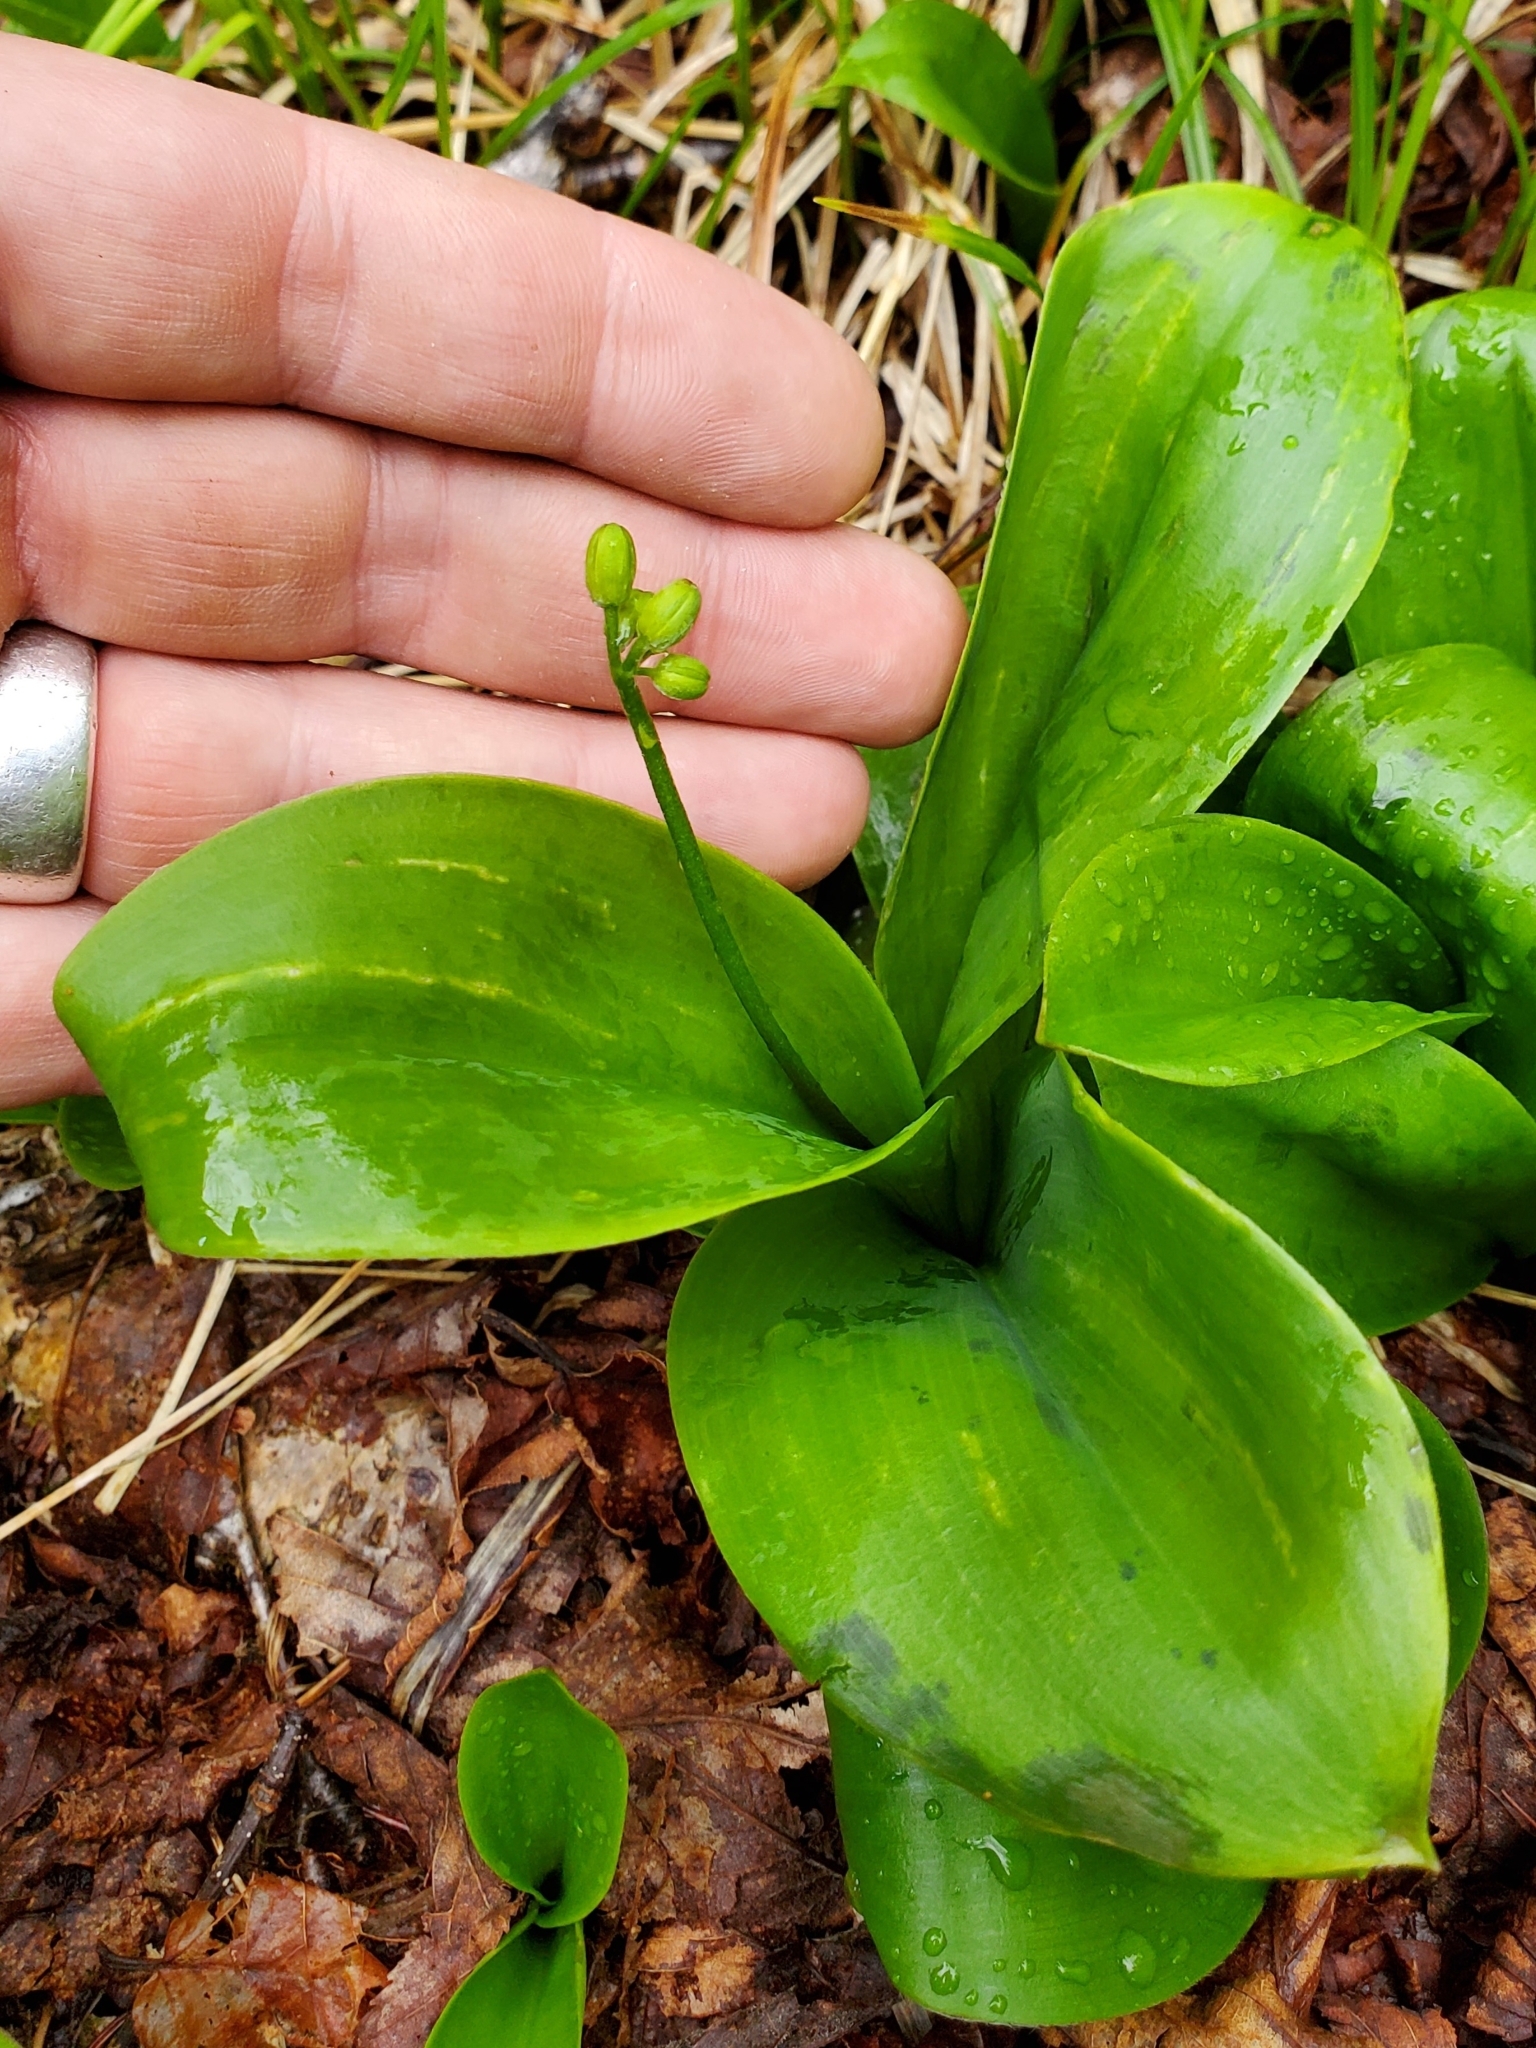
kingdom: Plantae
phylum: Tracheophyta
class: Liliopsida
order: Liliales
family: Liliaceae
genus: Clintonia
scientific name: Clintonia borealis
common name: Yellow clintonia
